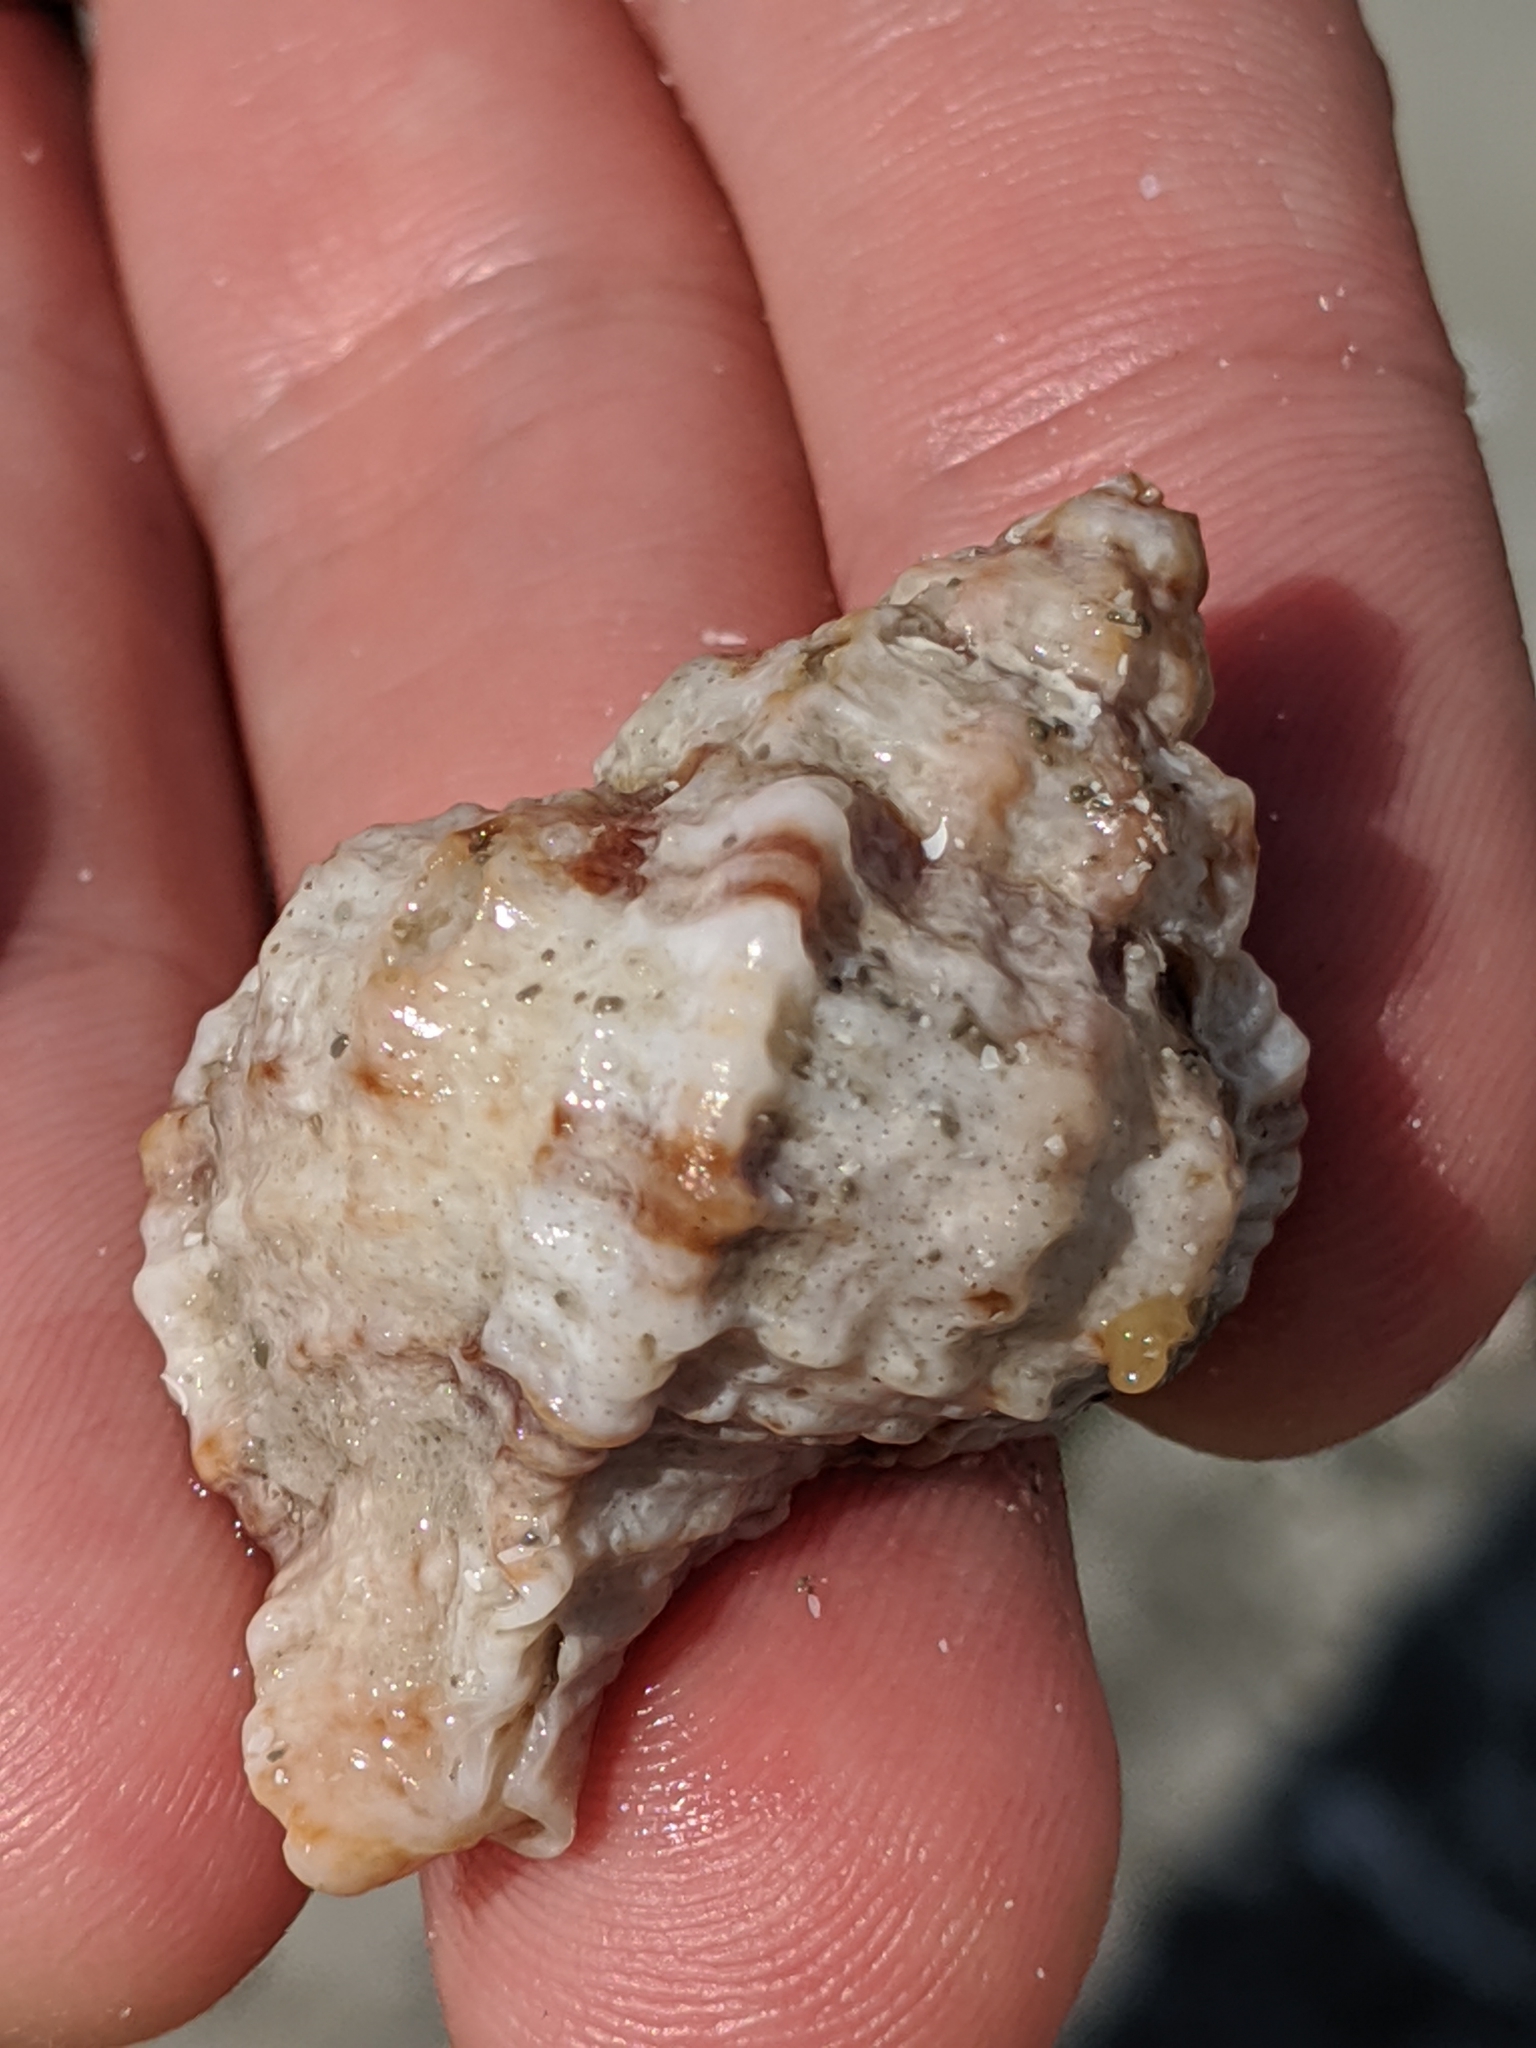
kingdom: Animalia
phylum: Mollusca
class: Gastropoda
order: Neogastropoda
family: Muricidae
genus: Phyllonotus
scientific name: Phyllonotus pomum
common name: Apple murex
